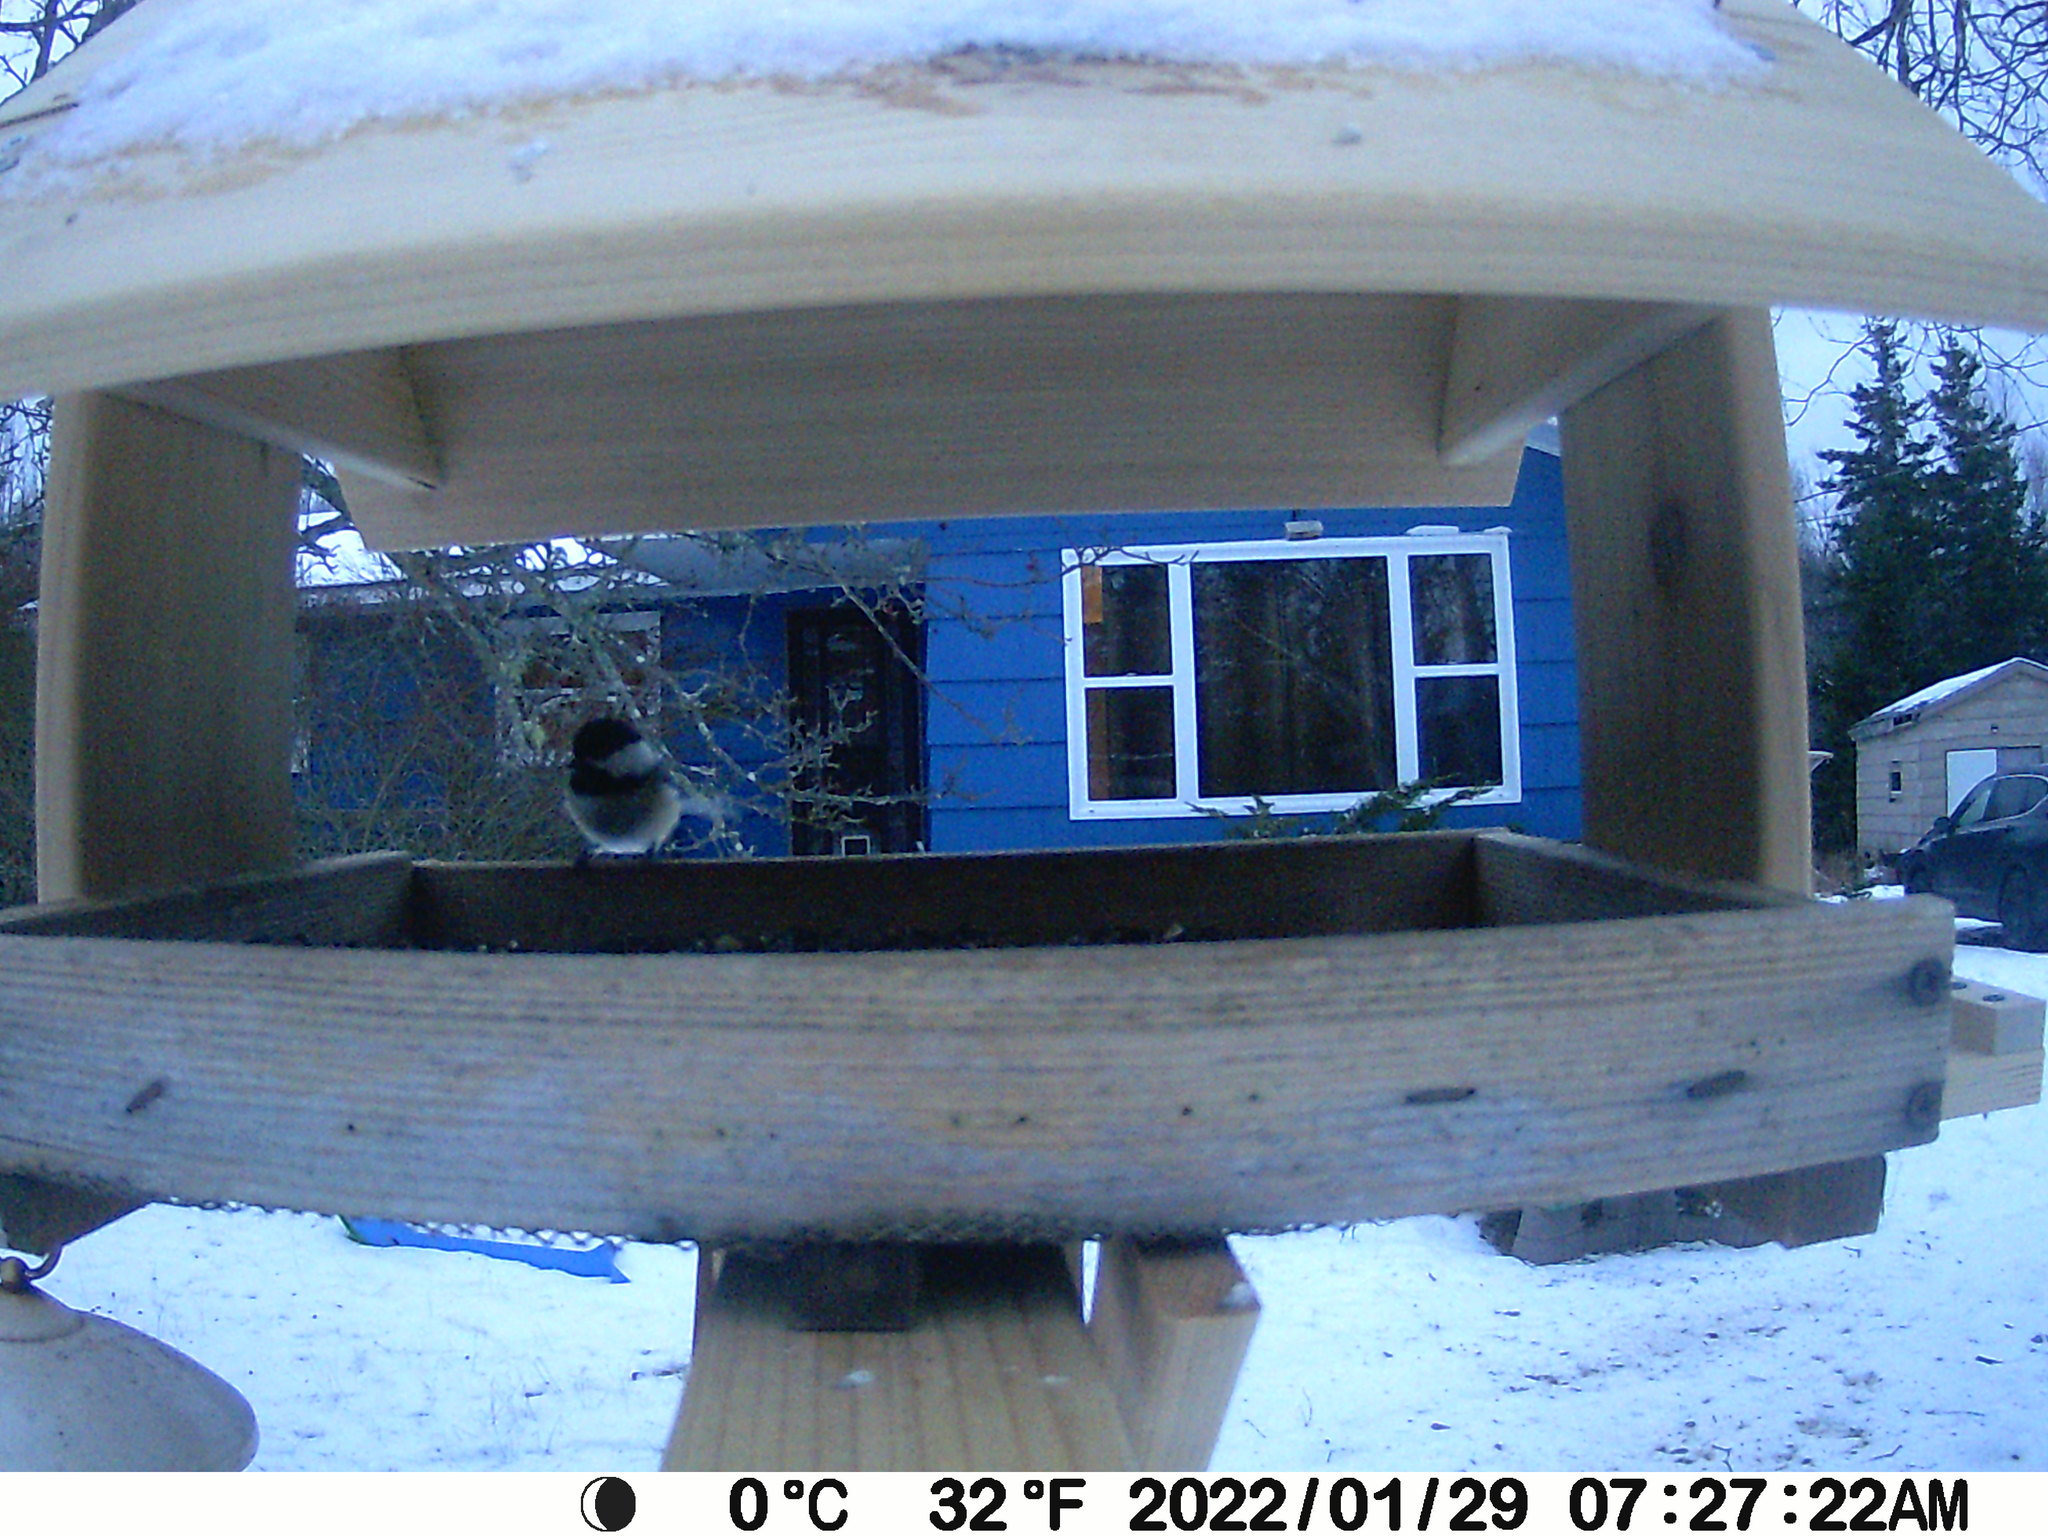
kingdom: Animalia
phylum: Chordata
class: Aves
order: Passeriformes
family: Paridae
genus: Poecile
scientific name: Poecile atricapillus
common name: Black-capped chickadee
